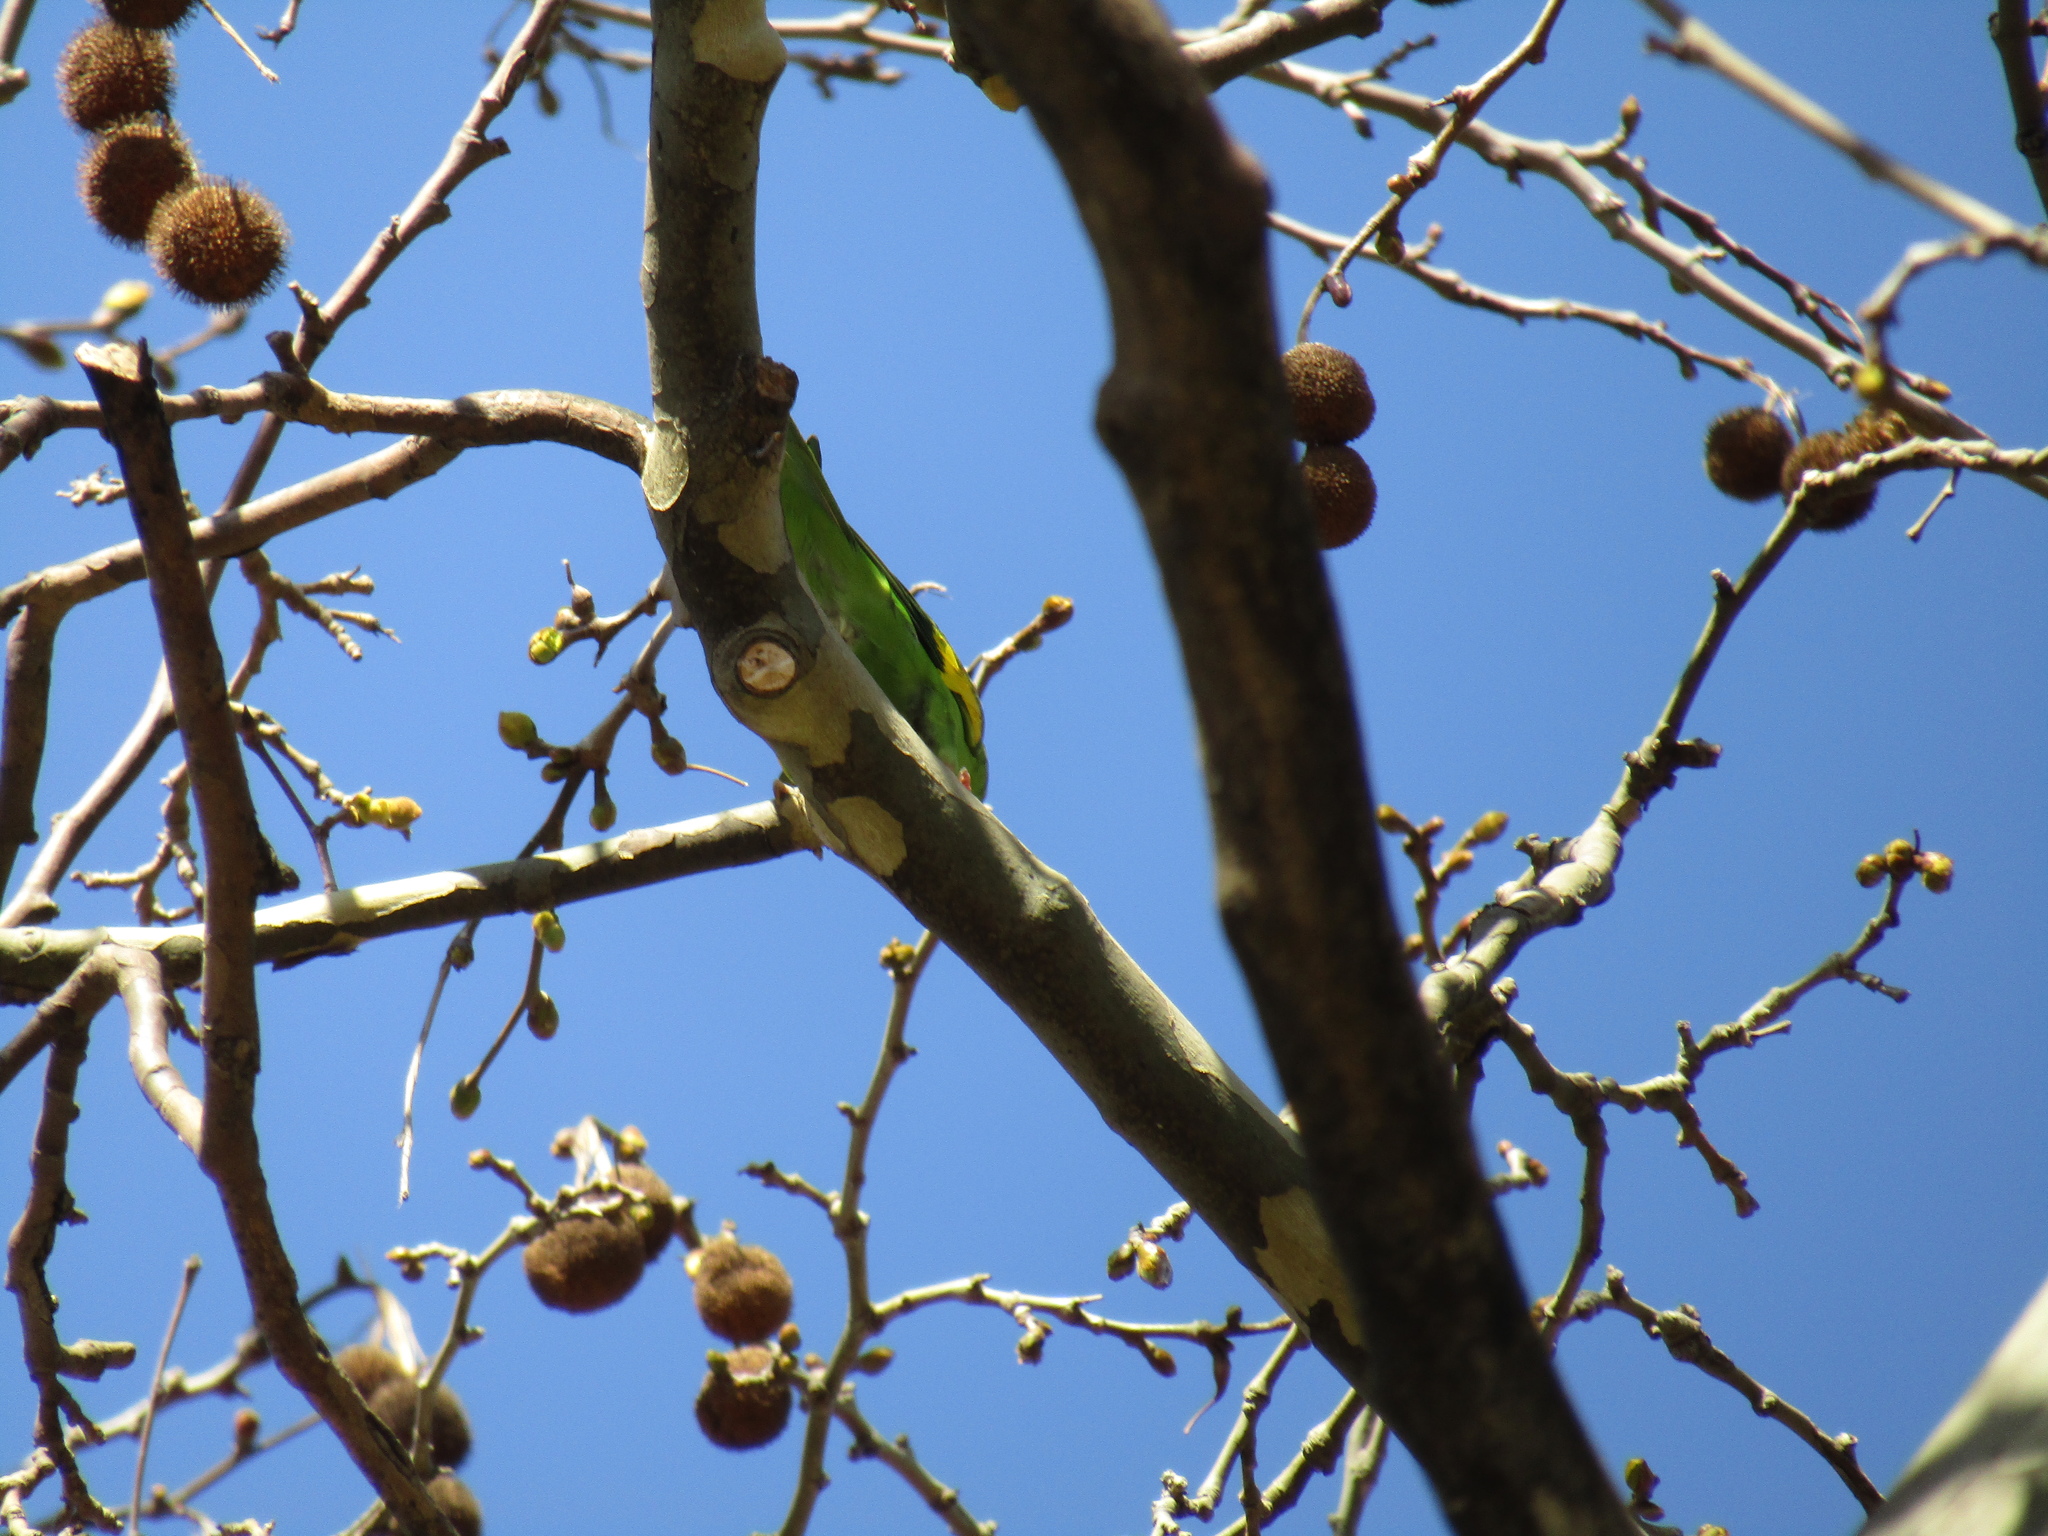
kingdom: Animalia
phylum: Chordata
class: Aves
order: Psittaciformes
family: Psittacidae
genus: Brotogeris
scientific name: Brotogeris chiriri
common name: Yellow-chevroned parakeet
